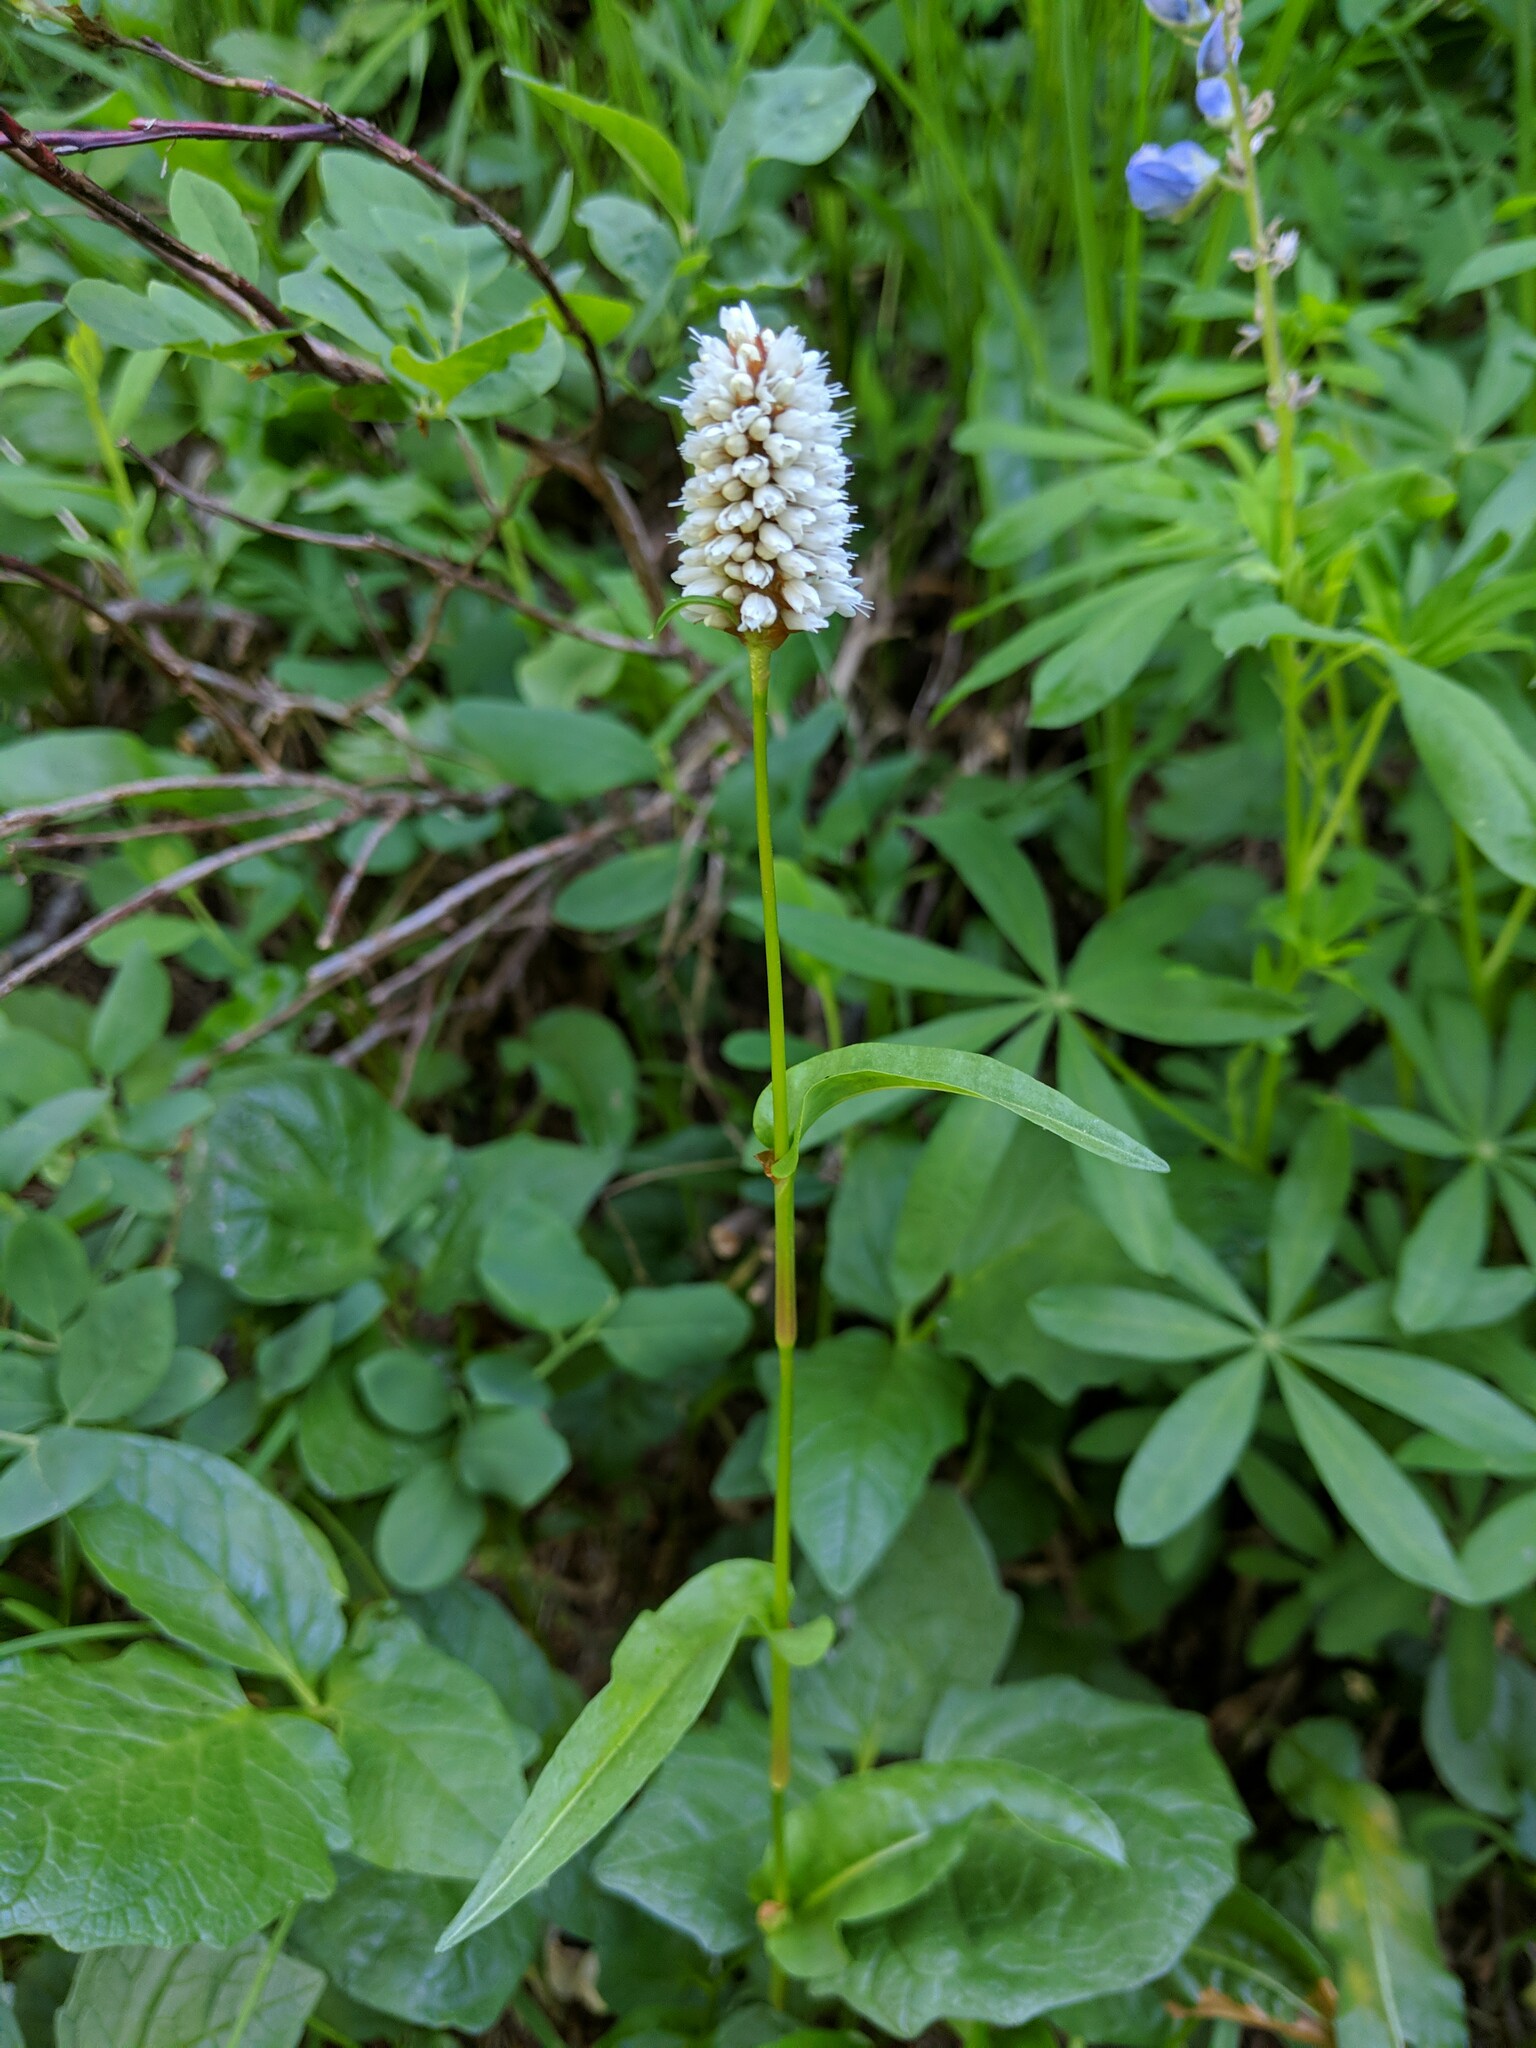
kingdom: Plantae
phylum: Tracheophyta
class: Magnoliopsida
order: Caryophyllales
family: Polygonaceae
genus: Bistorta
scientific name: Bistorta bistortoides
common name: American bistort
